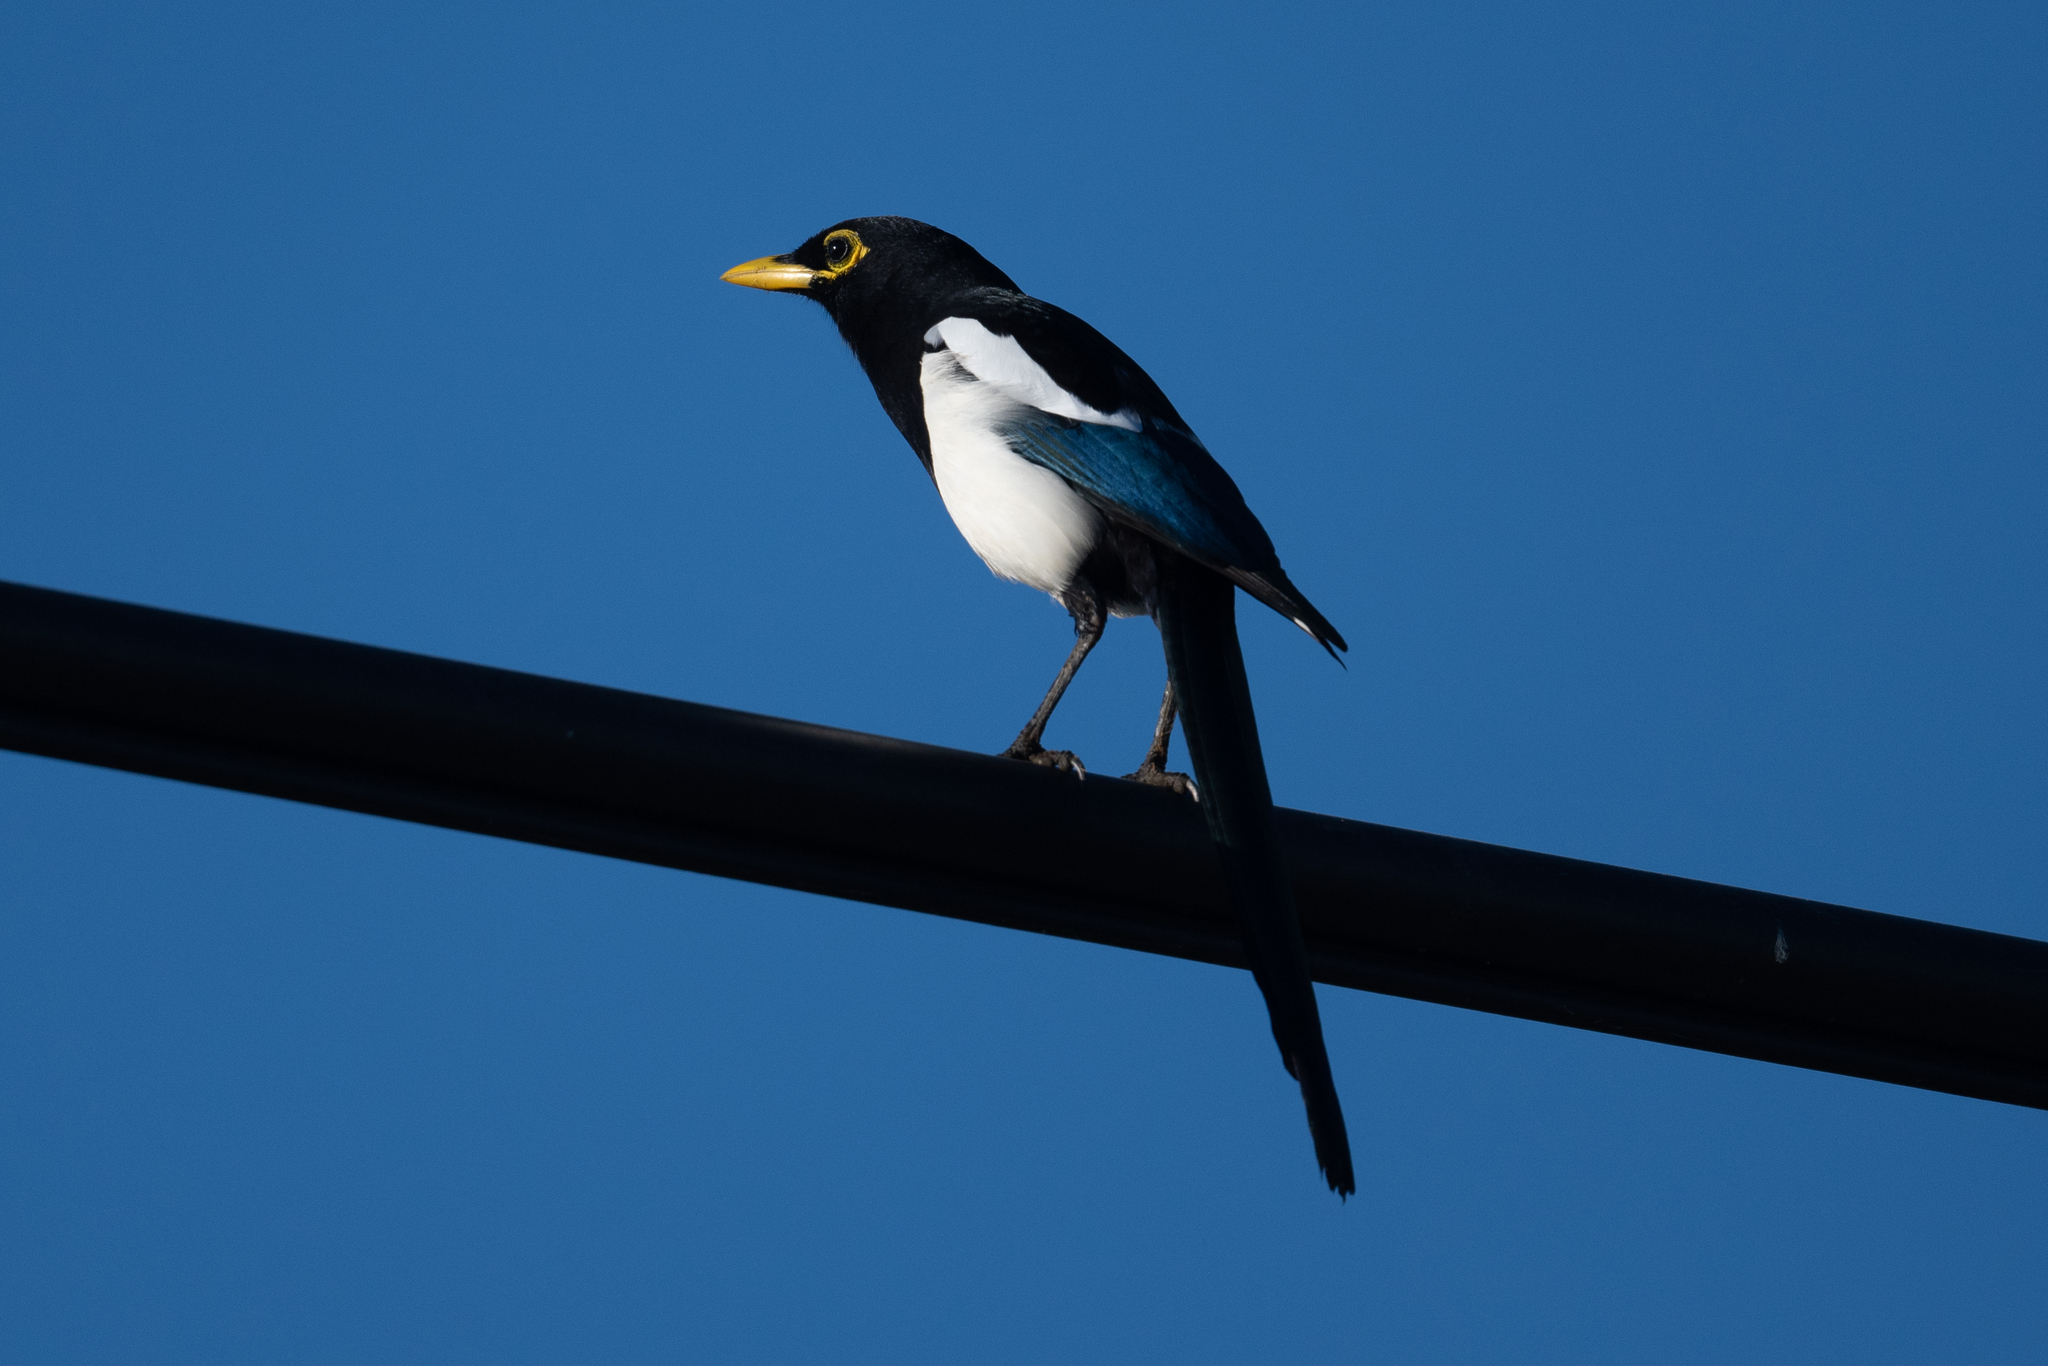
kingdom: Animalia
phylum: Chordata
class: Aves
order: Passeriformes
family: Corvidae
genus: Pica
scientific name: Pica nuttalli
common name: Yellow-billed magpie
